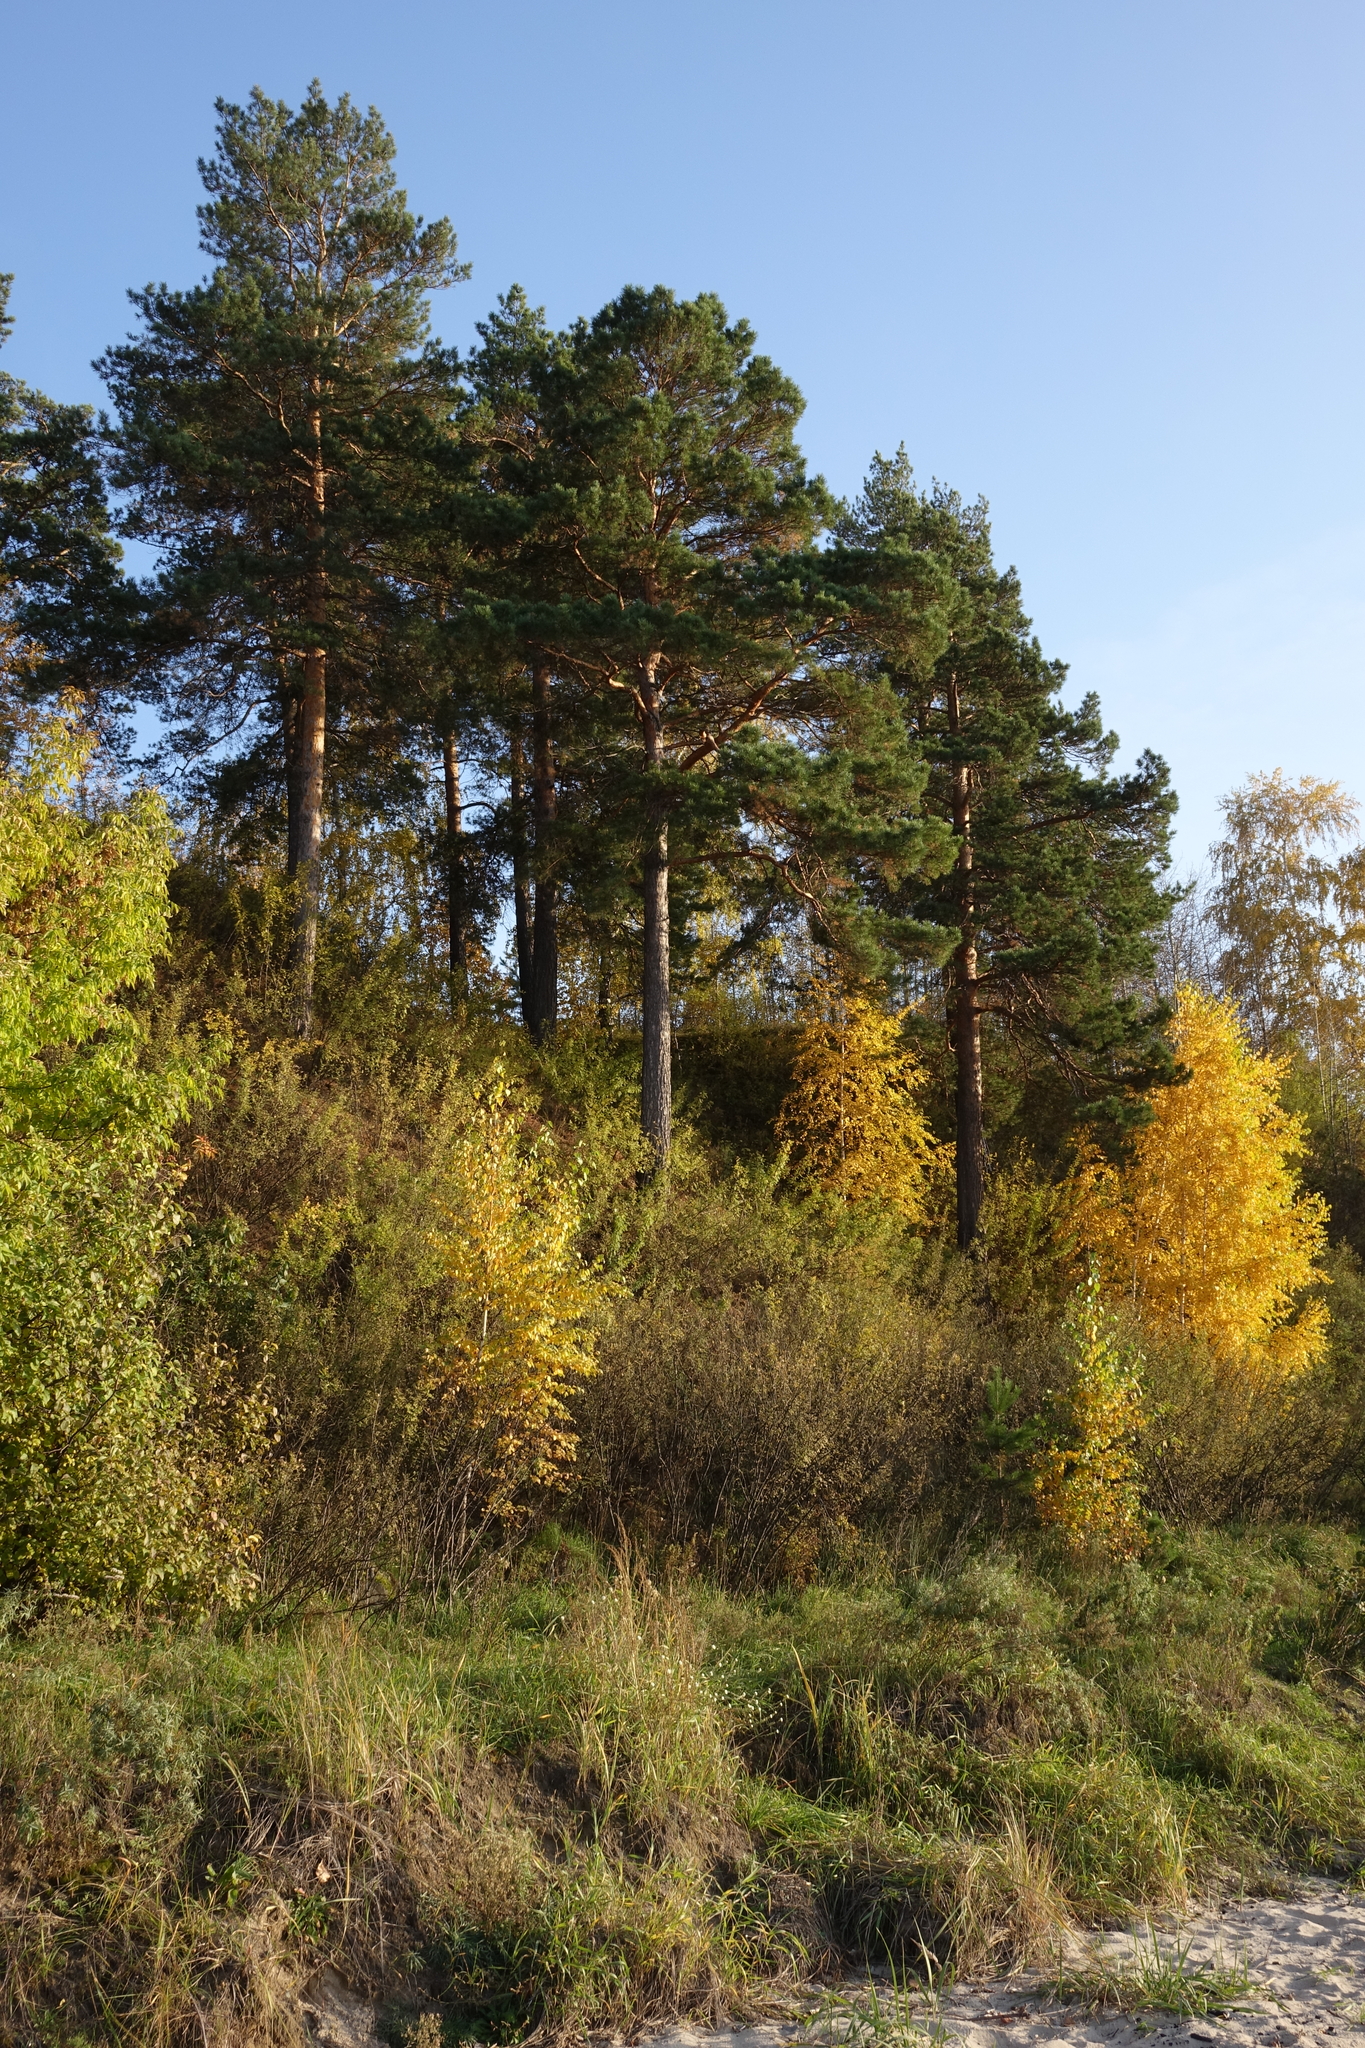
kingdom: Plantae
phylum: Tracheophyta
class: Magnoliopsida
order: Fagales
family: Betulaceae
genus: Betula
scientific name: Betula pendula
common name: Silver birch
